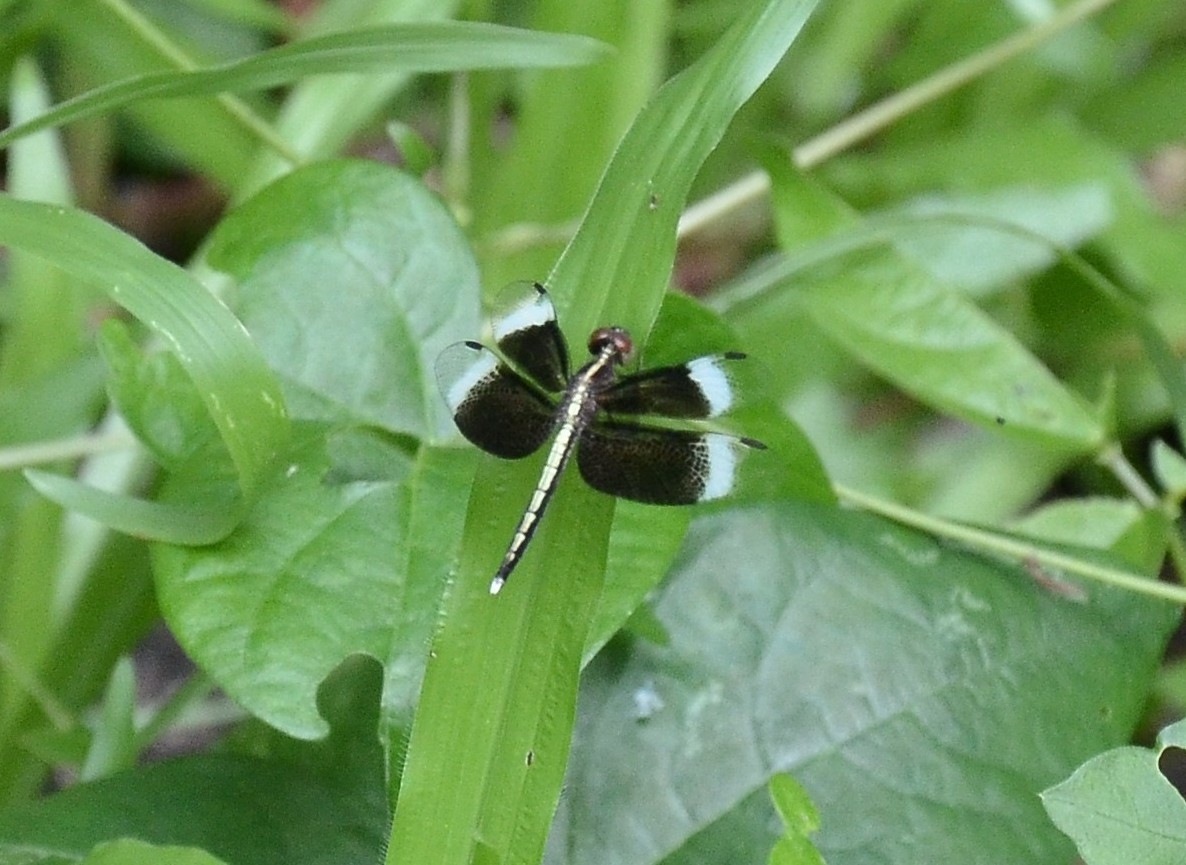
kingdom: Animalia
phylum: Arthropoda
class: Insecta
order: Odonata
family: Libellulidae
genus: Neurothemis
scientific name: Neurothemis tullia
